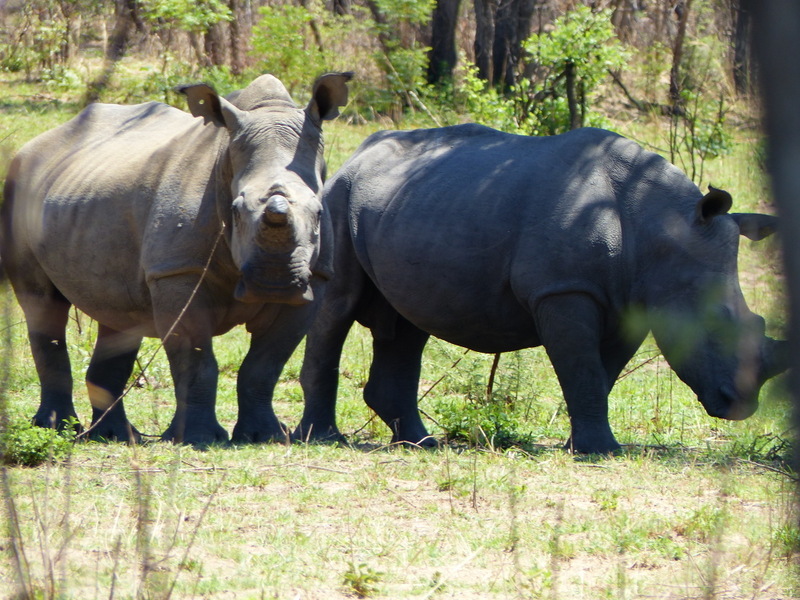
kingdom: Animalia
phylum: Chordata
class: Mammalia
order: Perissodactyla
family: Rhinocerotidae
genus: Ceratotherium
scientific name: Ceratotherium simum
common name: White rhinoceros
